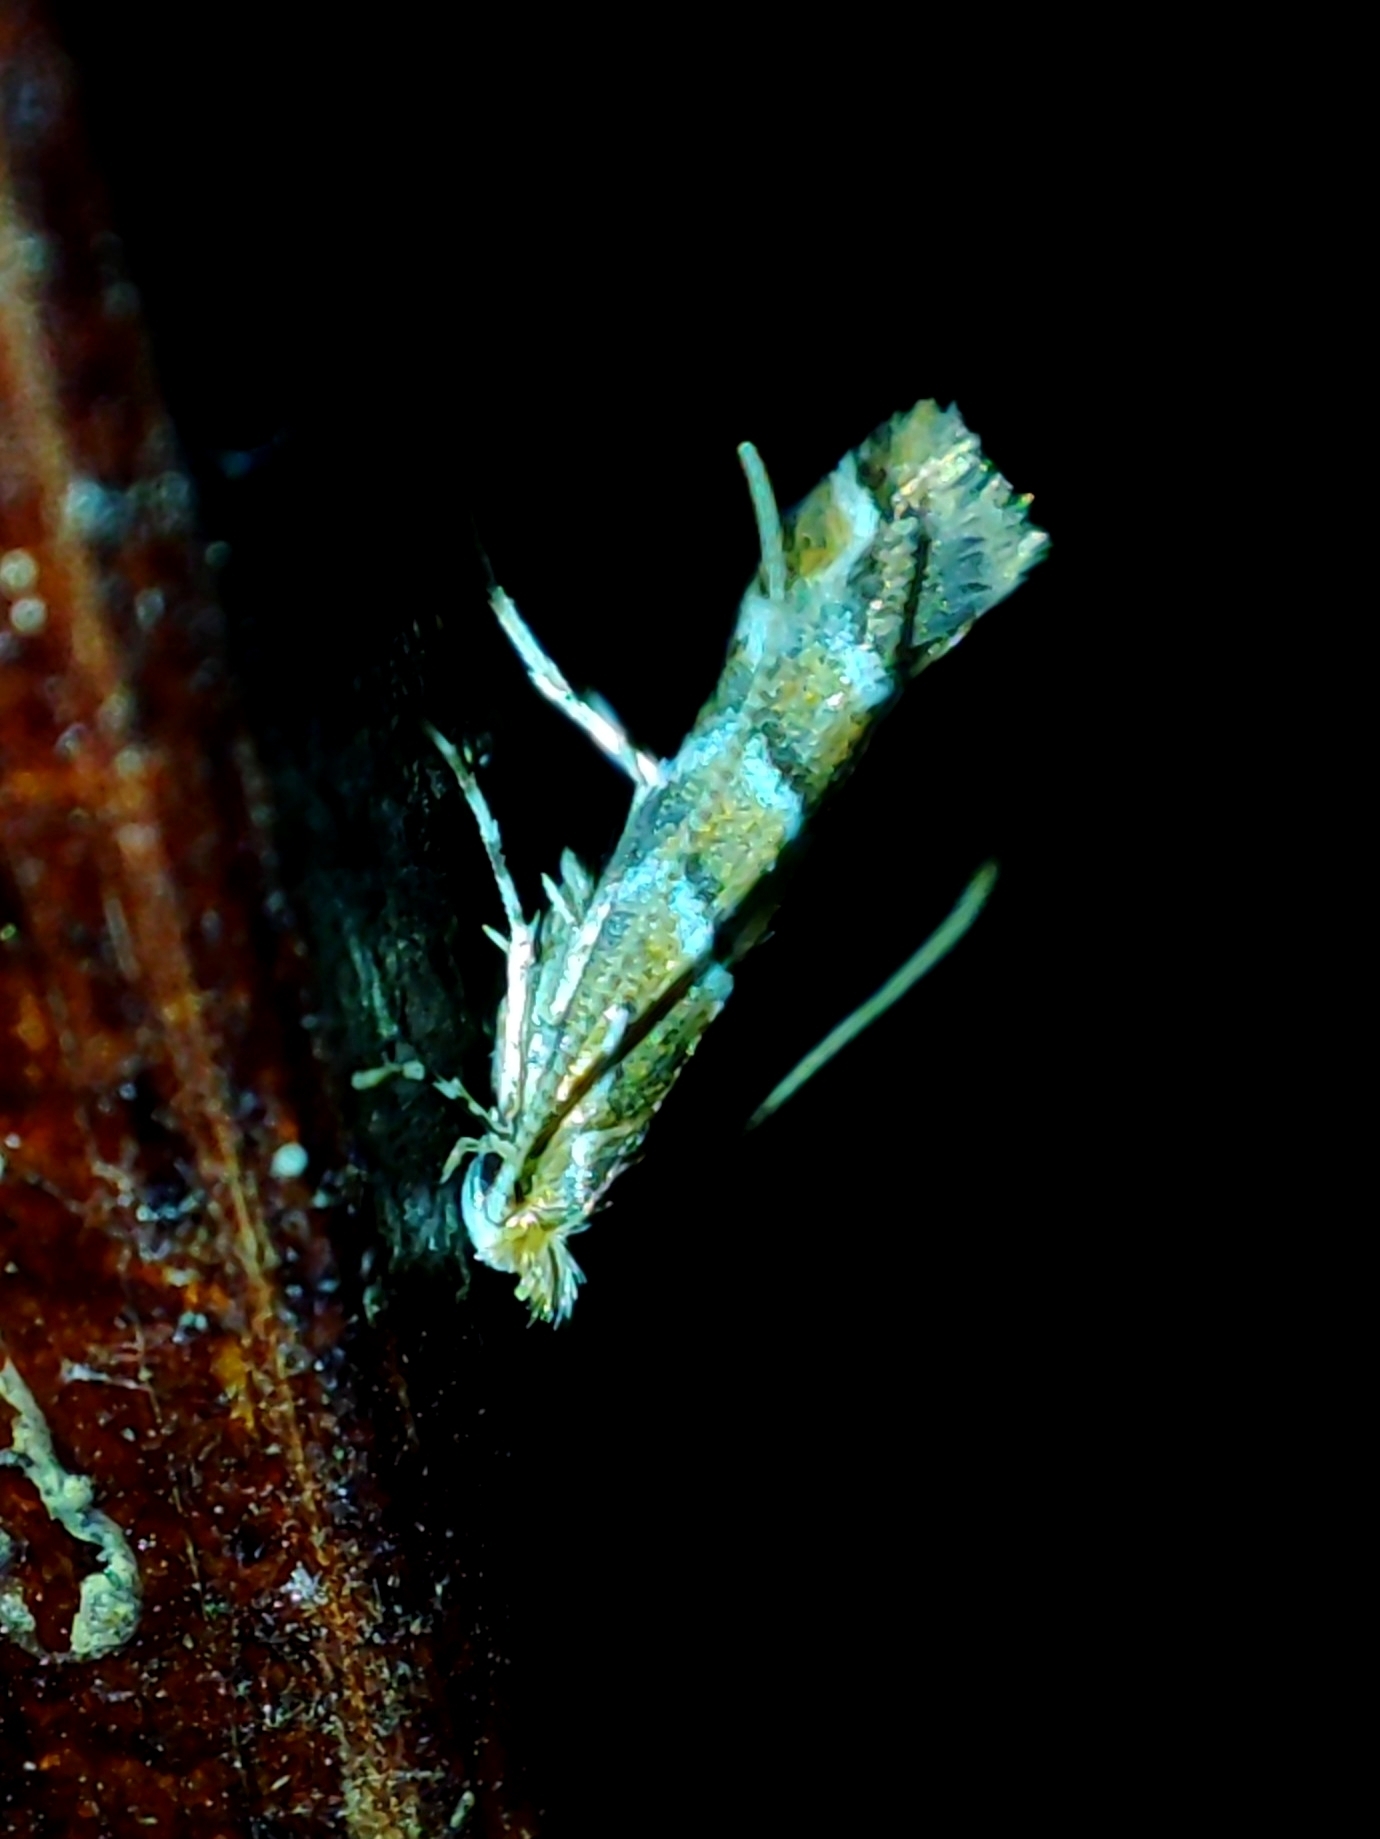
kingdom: Animalia
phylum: Arthropoda
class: Insecta
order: Lepidoptera
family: Gracillariidae
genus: Cameraria
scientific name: Cameraria ohridella
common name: Horse-chestnut leaf-miner
